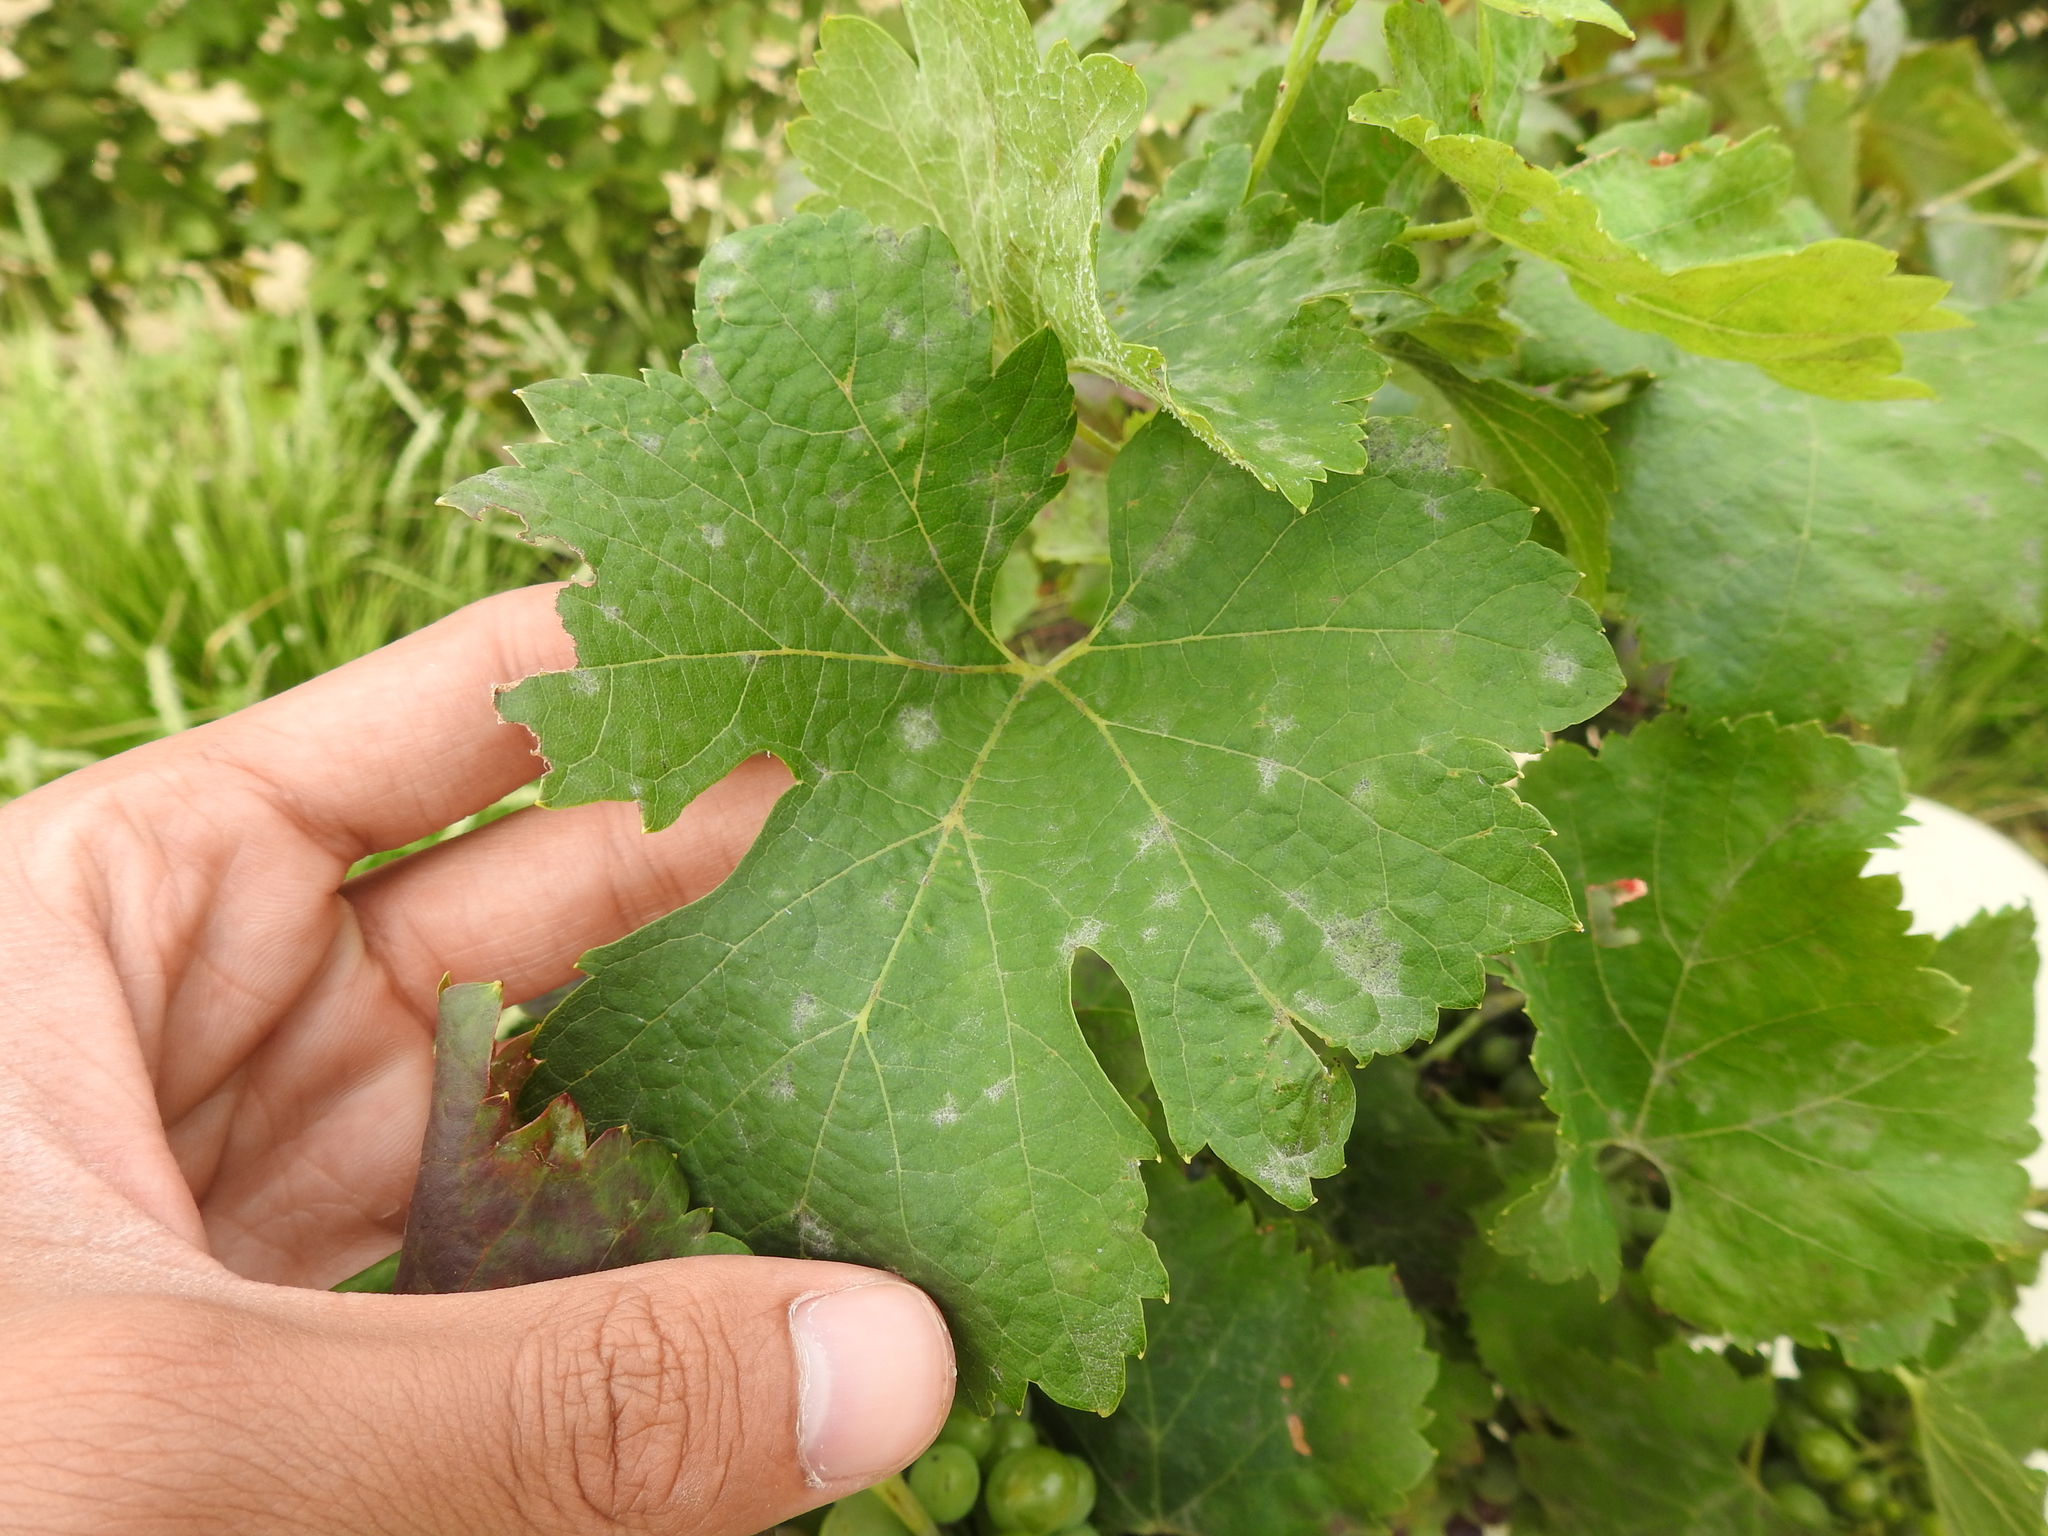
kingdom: Fungi
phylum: Ascomycota
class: Leotiomycetes
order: Helotiales
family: Erysiphaceae
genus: Erysiphe
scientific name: Erysiphe necator
